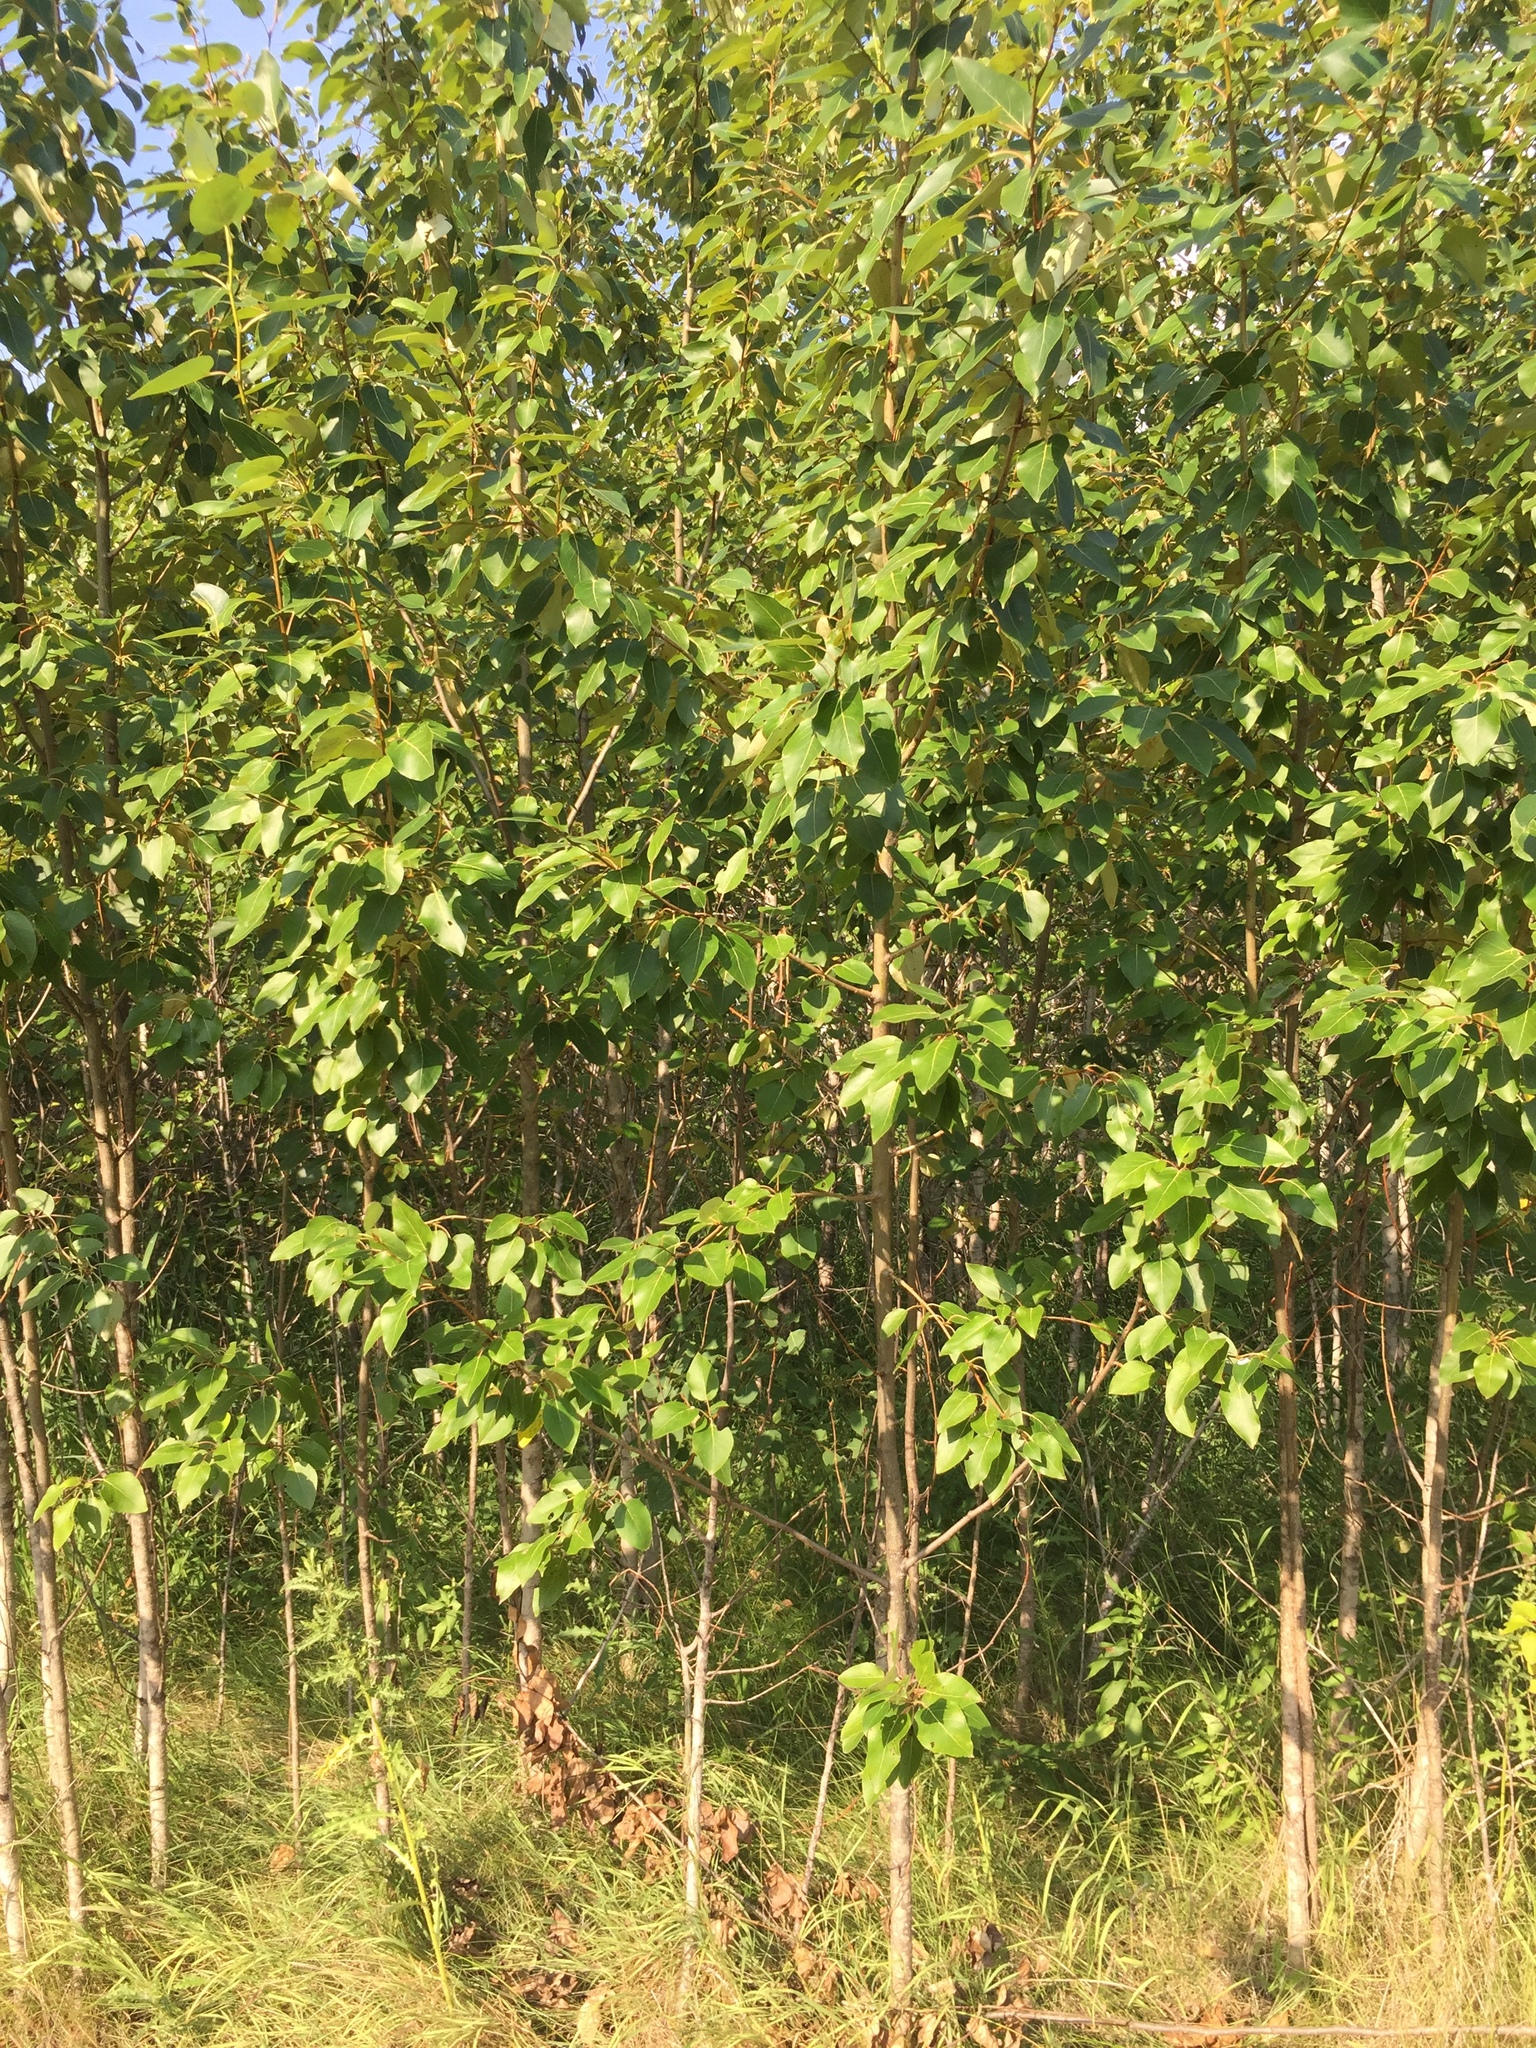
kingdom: Plantae
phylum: Tracheophyta
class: Magnoliopsida
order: Malpighiales
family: Salicaceae
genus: Populus
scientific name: Populus balsamifera
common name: Balsam poplar
